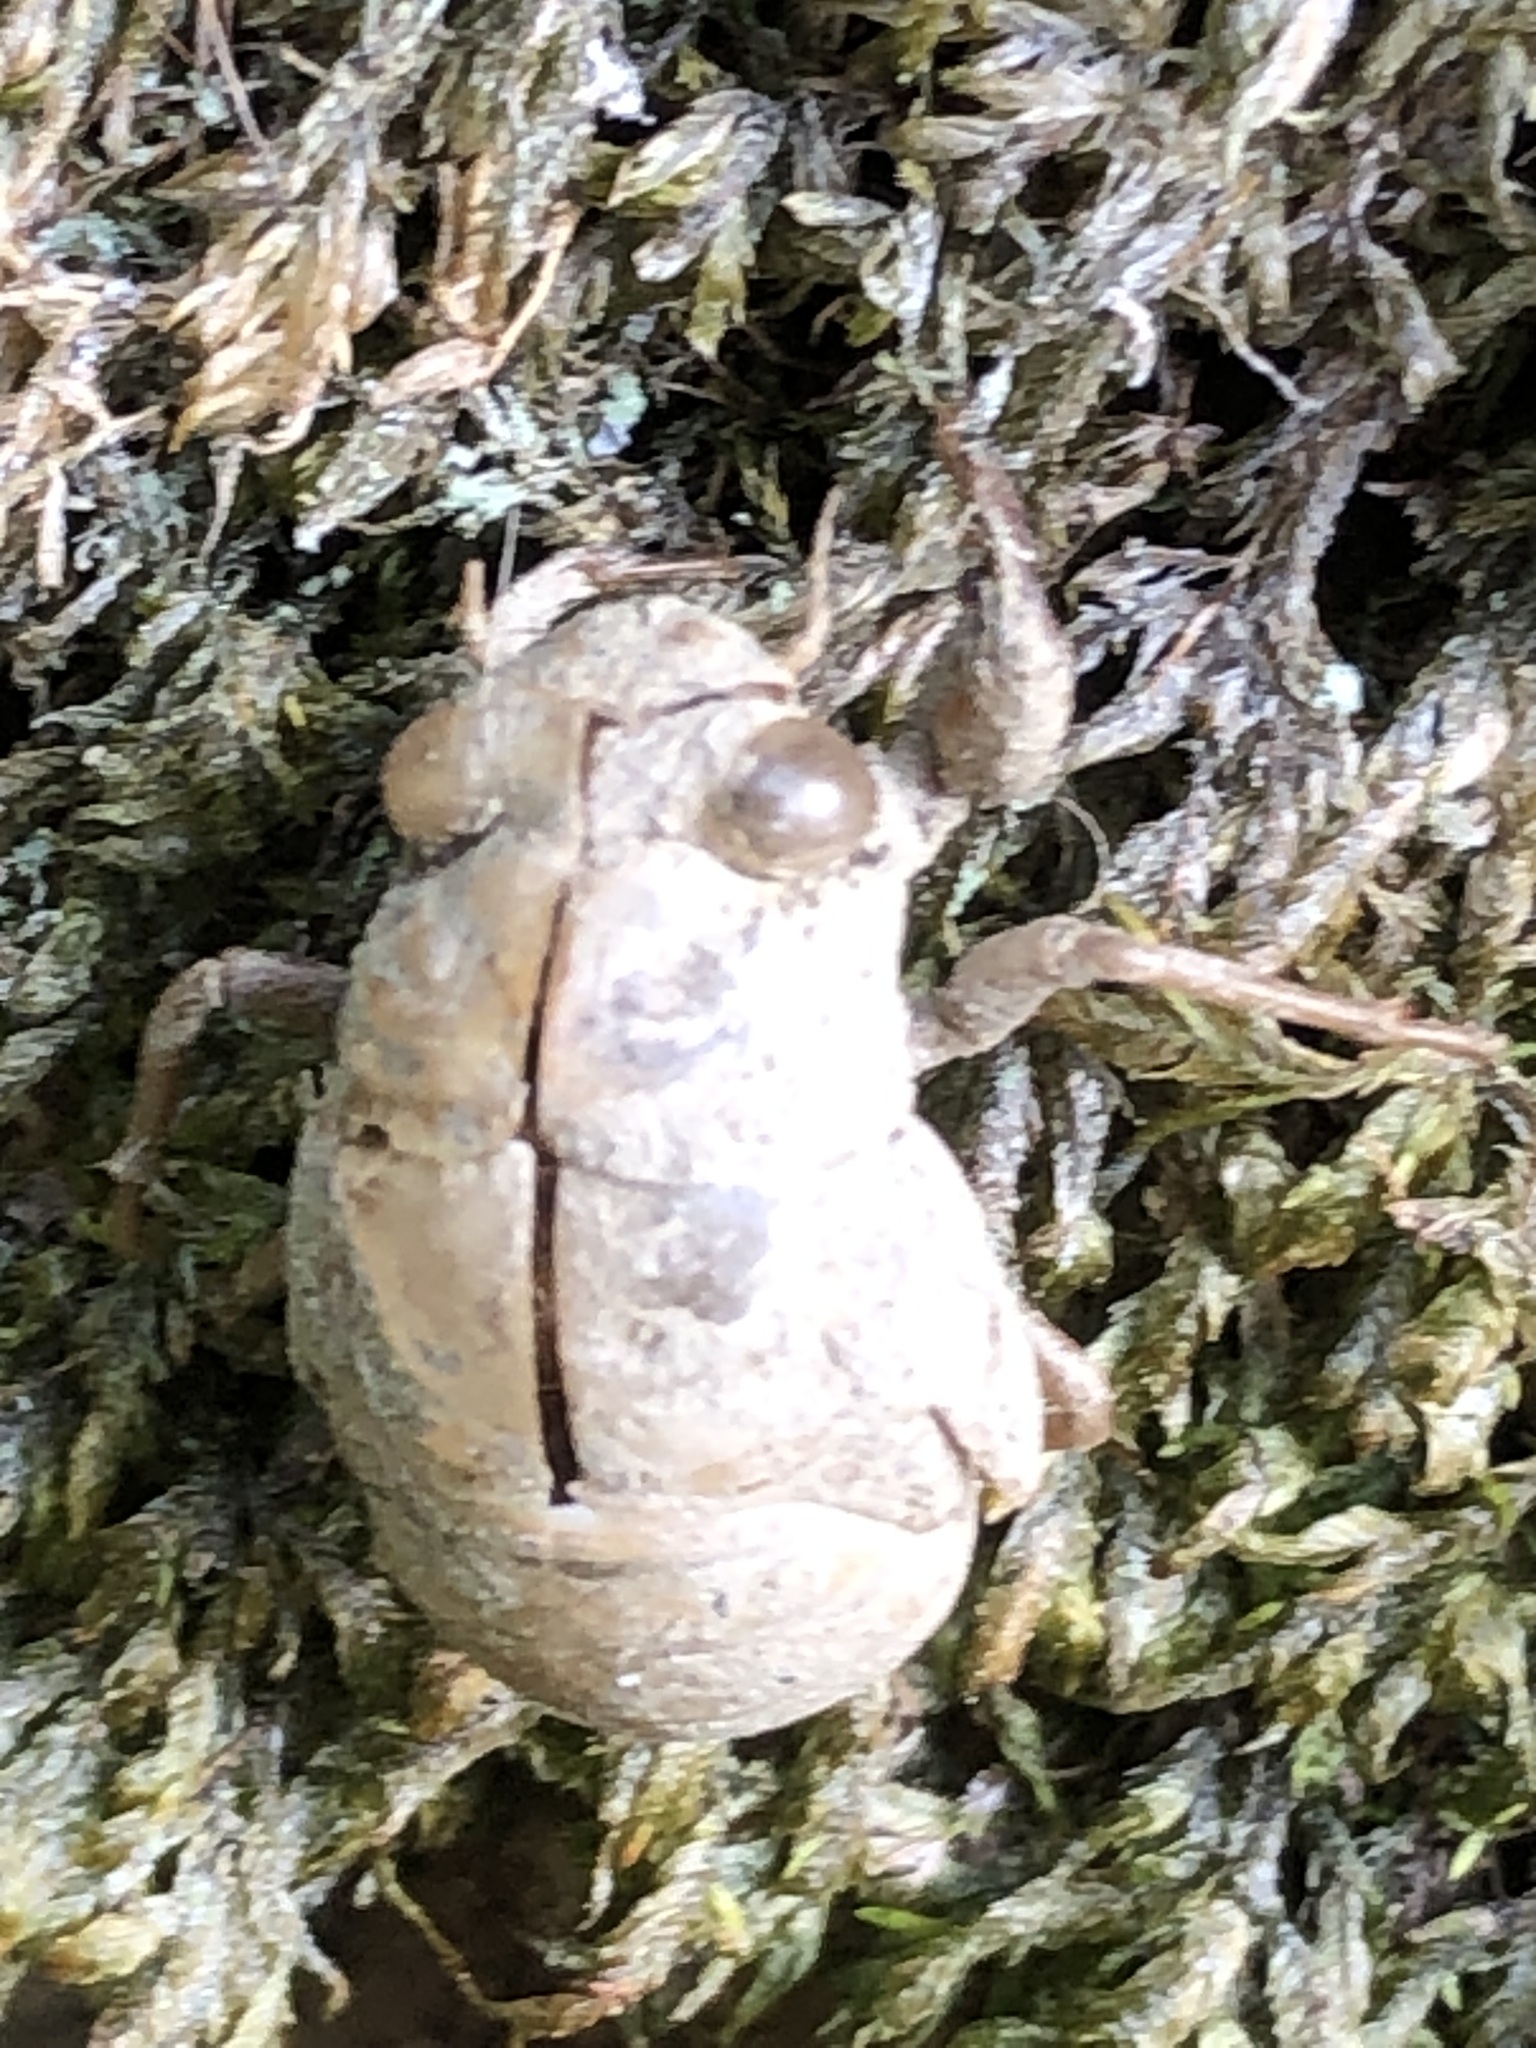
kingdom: Animalia
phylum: Arthropoda
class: Insecta
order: Hemiptera
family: Cicadidae
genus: Platypleura
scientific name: Platypleura kaempferi
